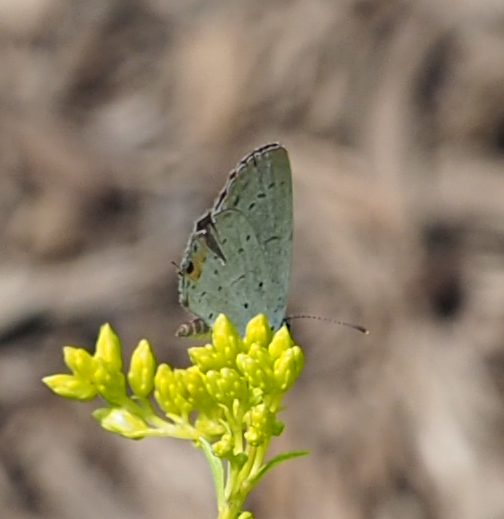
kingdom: Animalia
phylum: Arthropoda
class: Insecta
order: Lepidoptera
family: Lycaenidae
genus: Elkalyce
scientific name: Elkalyce comyntas
